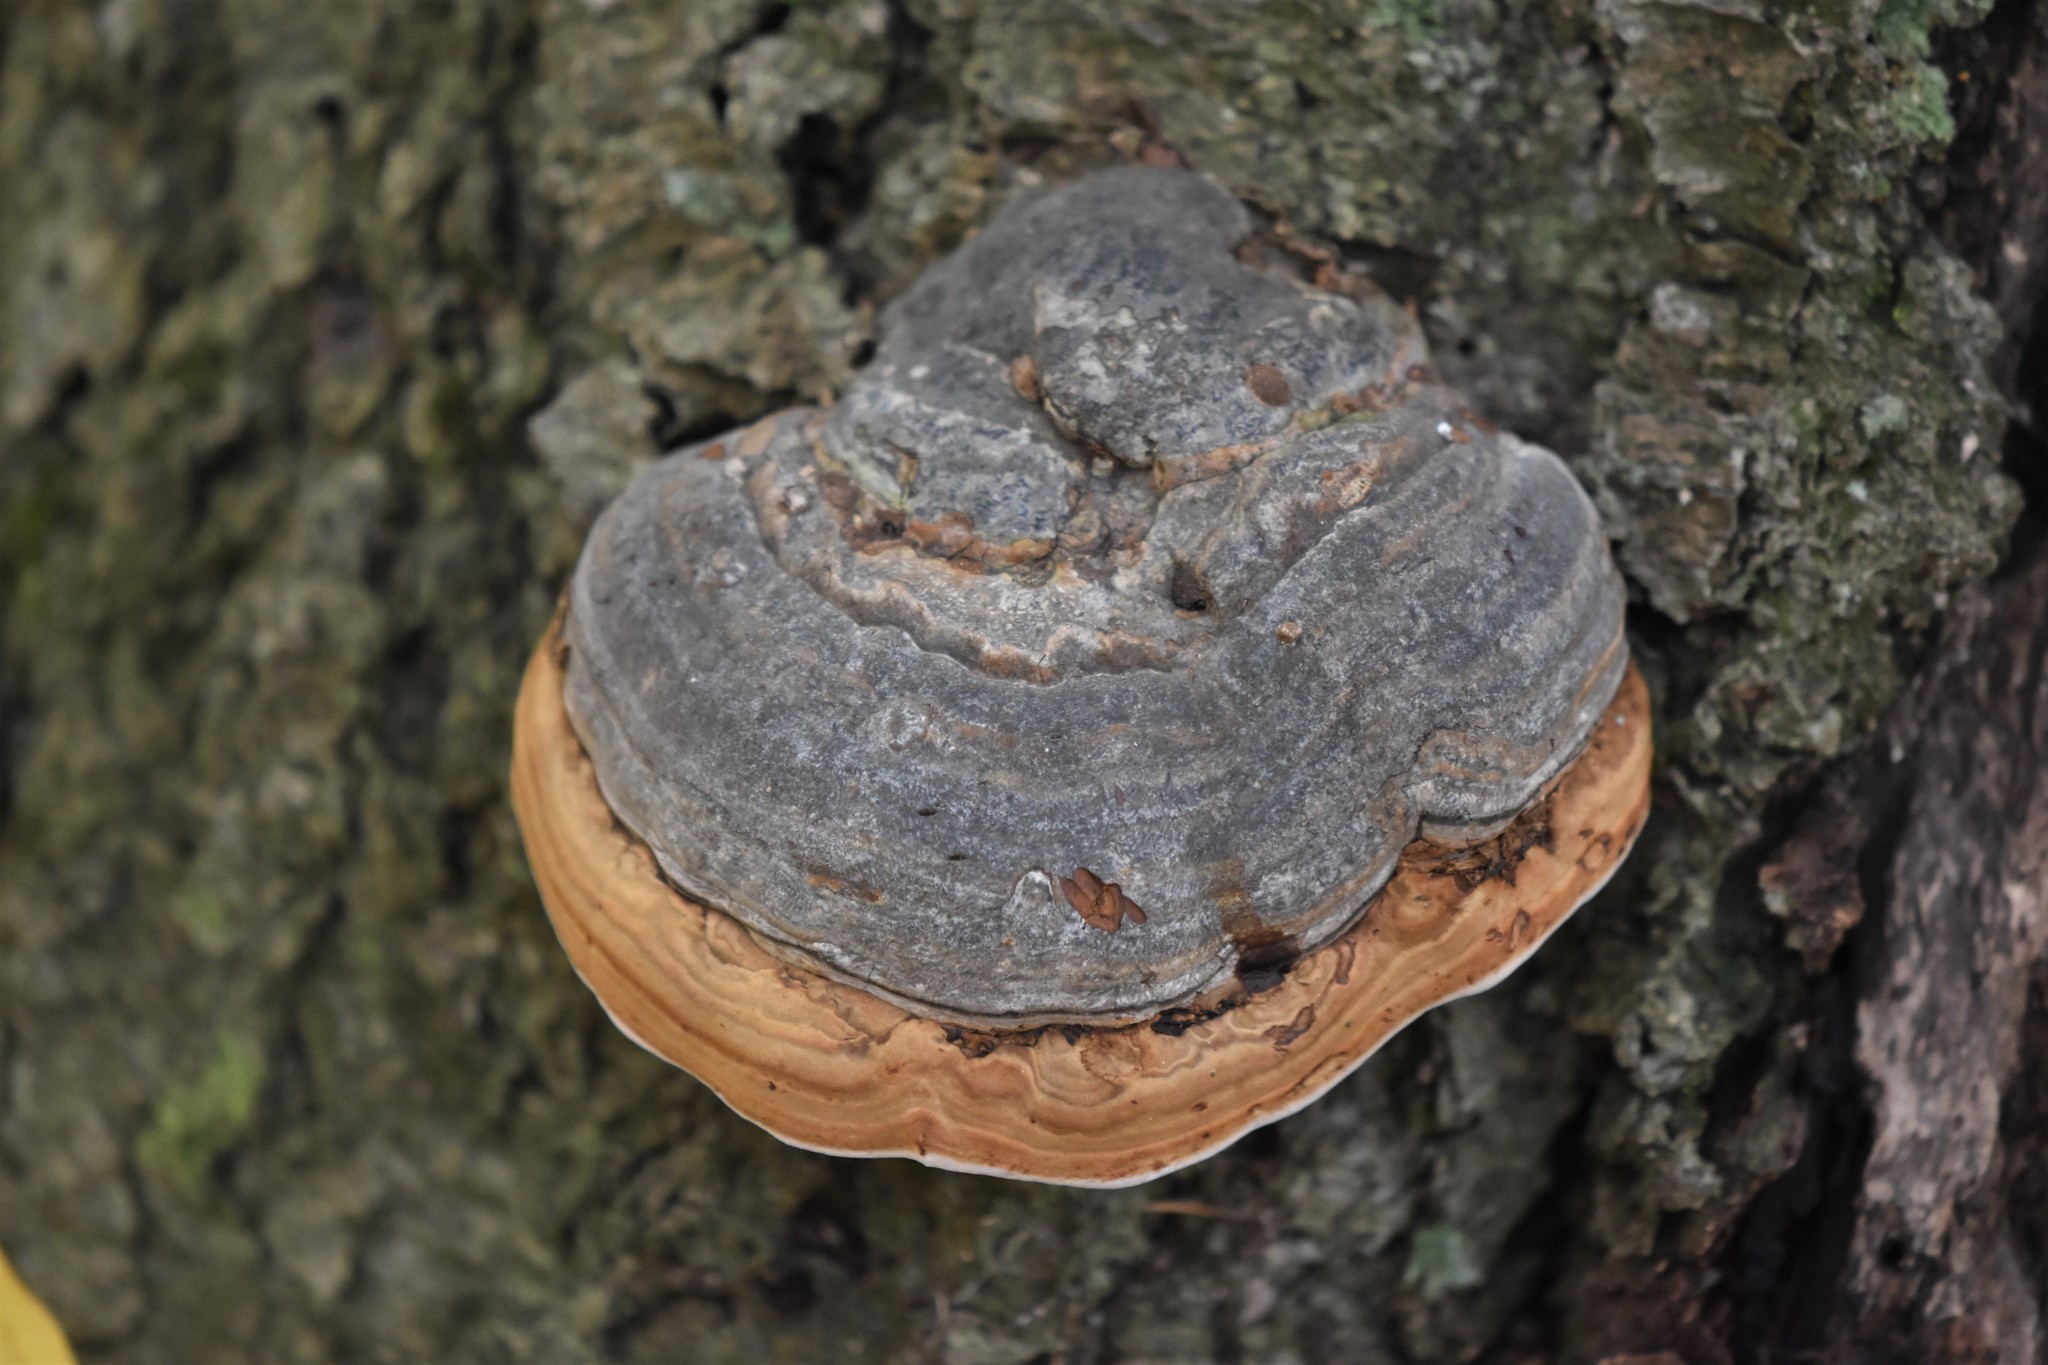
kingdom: Fungi
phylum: Basidiomycota
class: Agaricomycetes
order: Polyporales
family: Fomitopsidaceae
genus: Fomitopsis
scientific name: Fomitopsis mounceae
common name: Northern red belt
